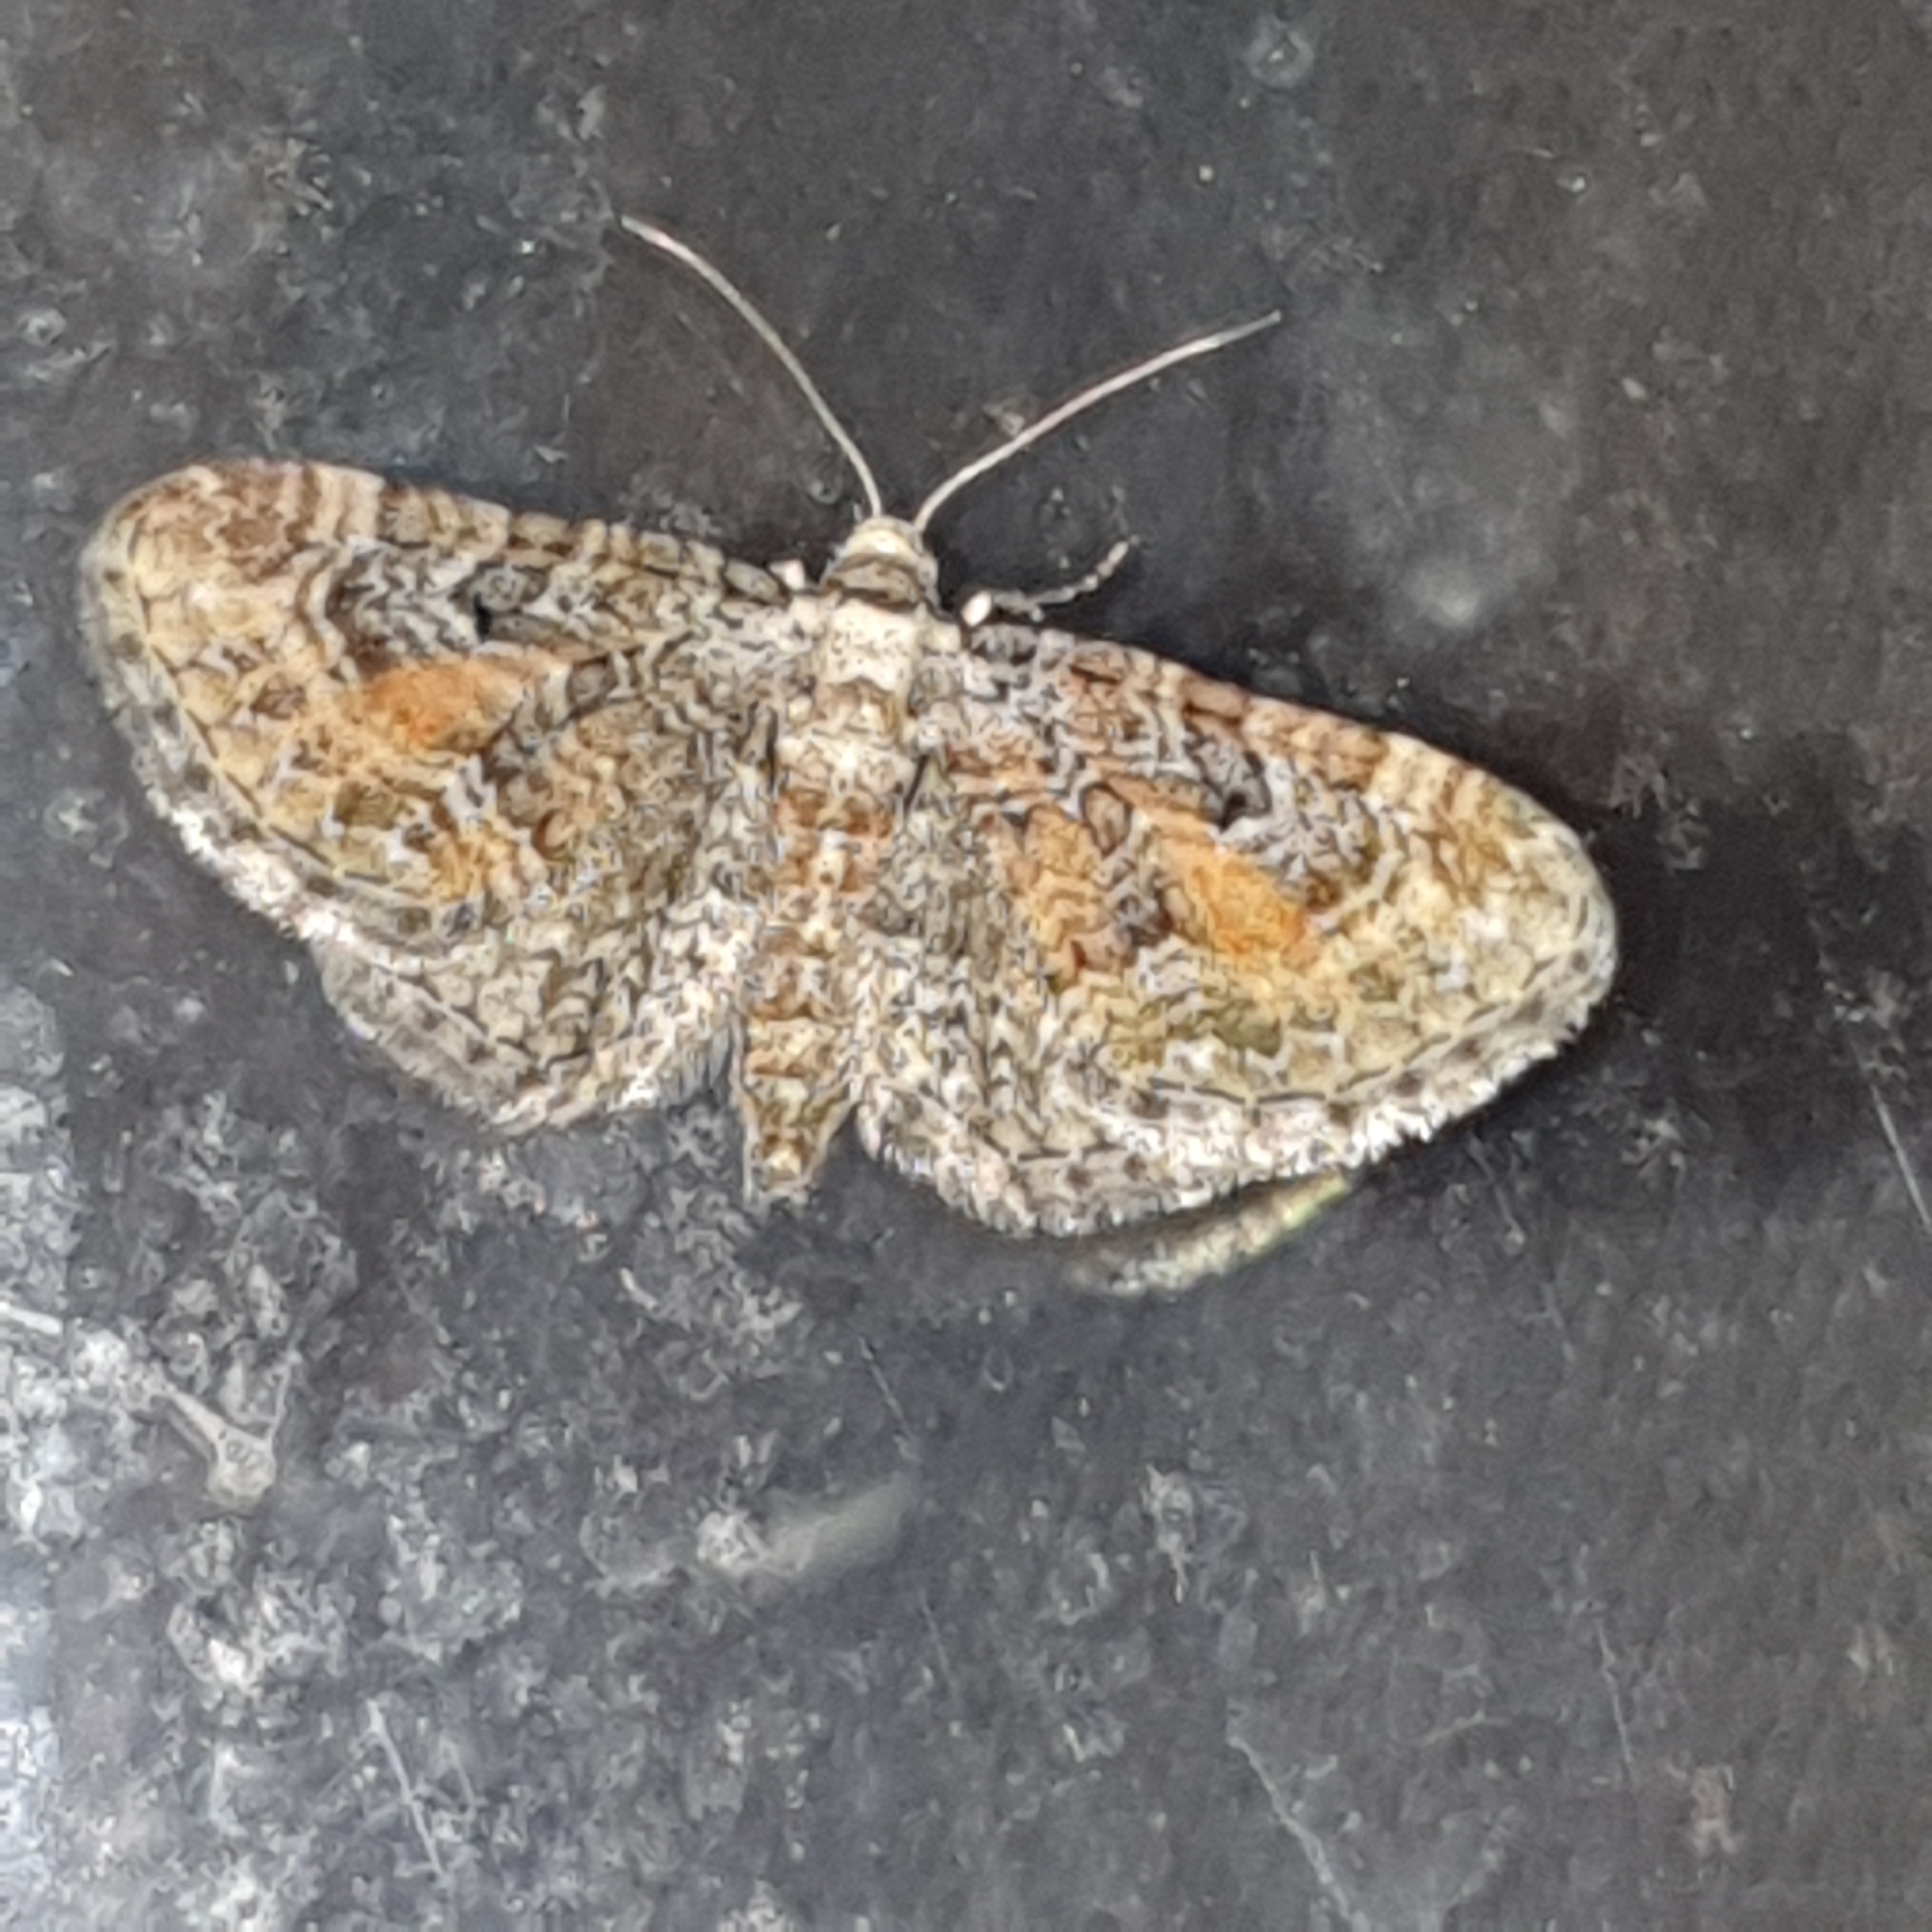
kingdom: Animalia
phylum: Arthropoda
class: Insecta
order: Lepidoptera
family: Geometridae
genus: Eupithecia
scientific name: Eupithecia icterata
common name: Tawny speckled pug
